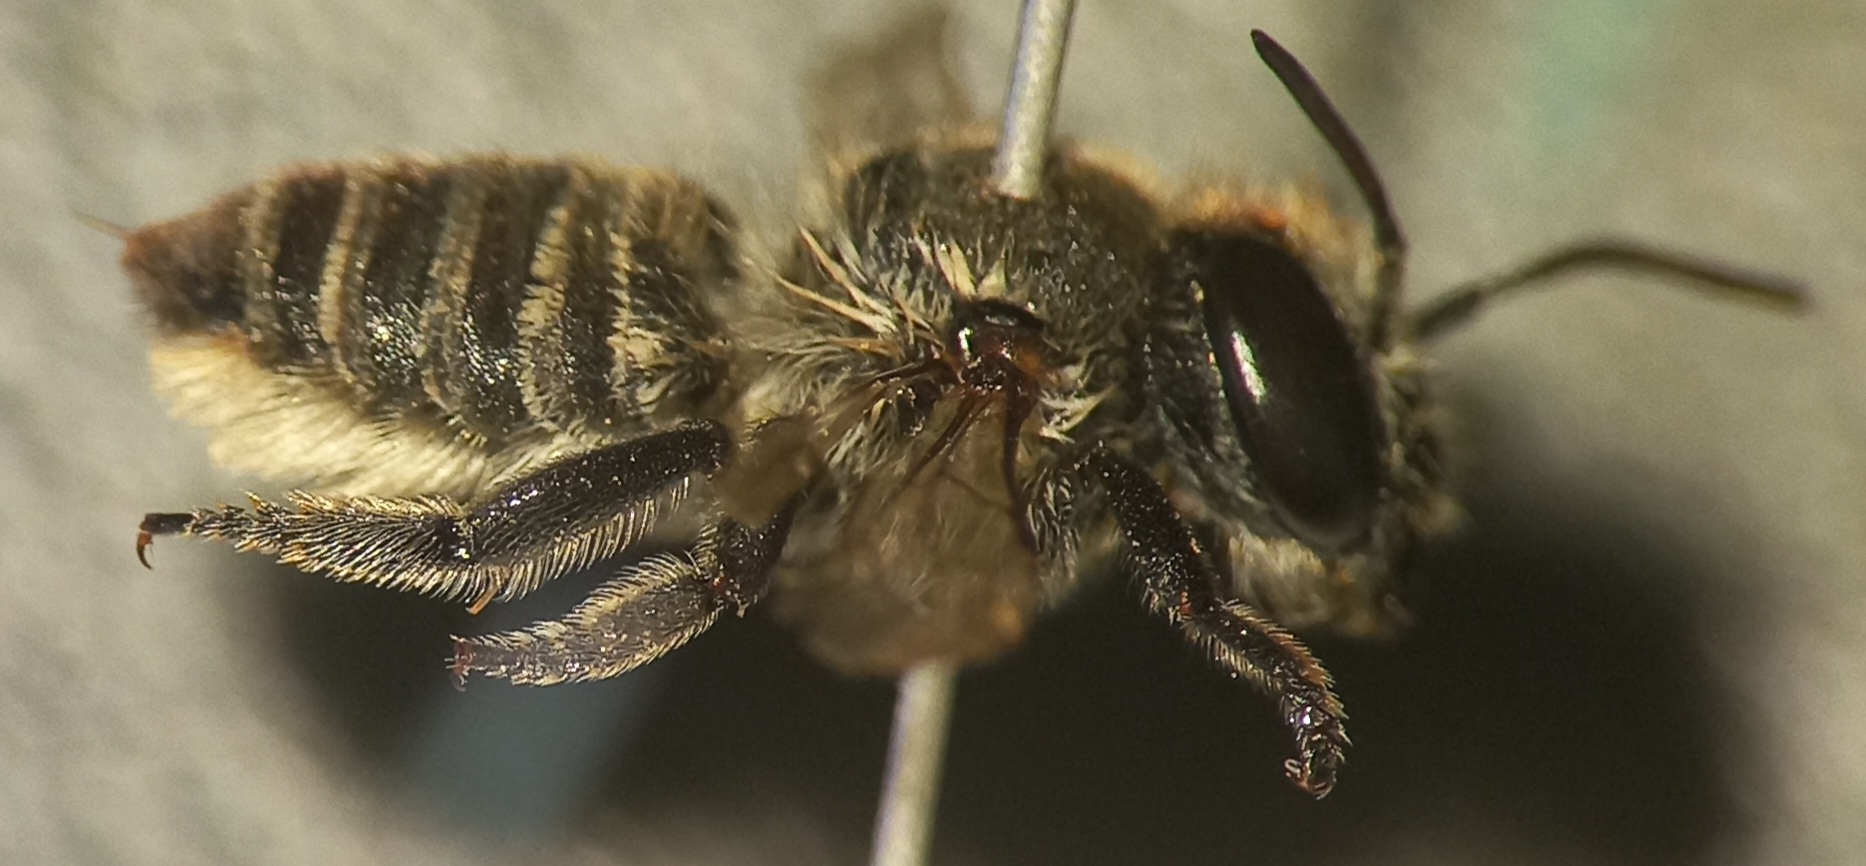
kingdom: Animalia
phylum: Arthropoda
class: Insecta
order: Hymenoptera
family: Megachilidae
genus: Megachile
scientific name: Megachile pilidens
